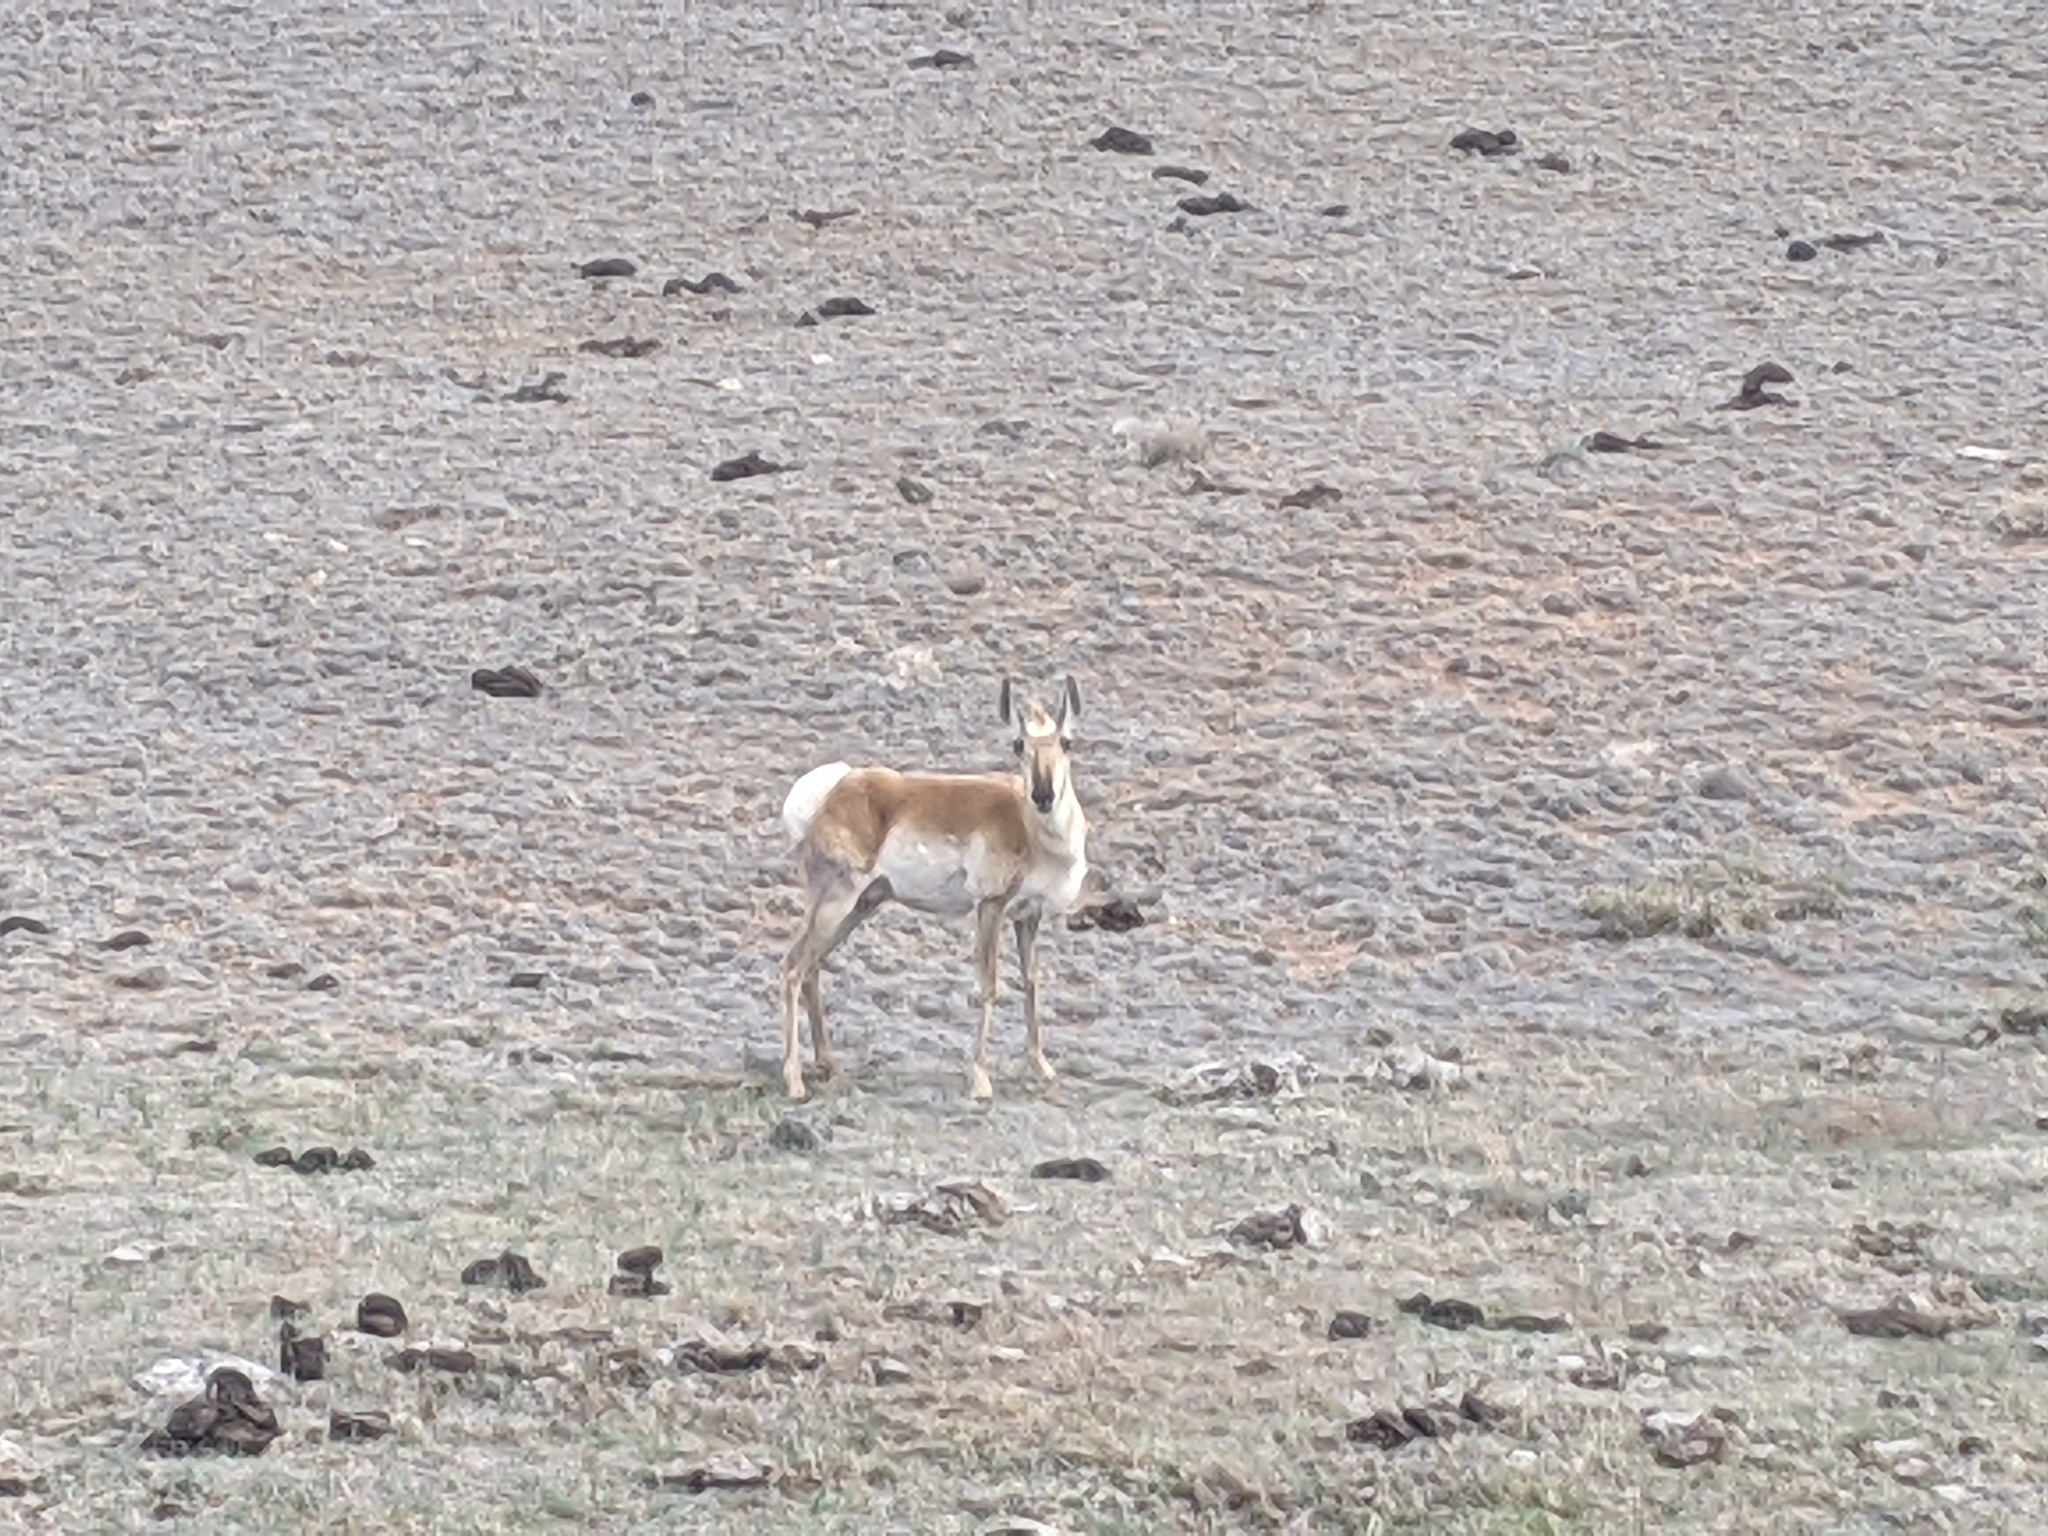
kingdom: Animalia
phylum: Chordata
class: Mammalia
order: Artiodactyla
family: Antilocapridae
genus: Antilocapra
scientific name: Antilocapra americana
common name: Pronghorn
